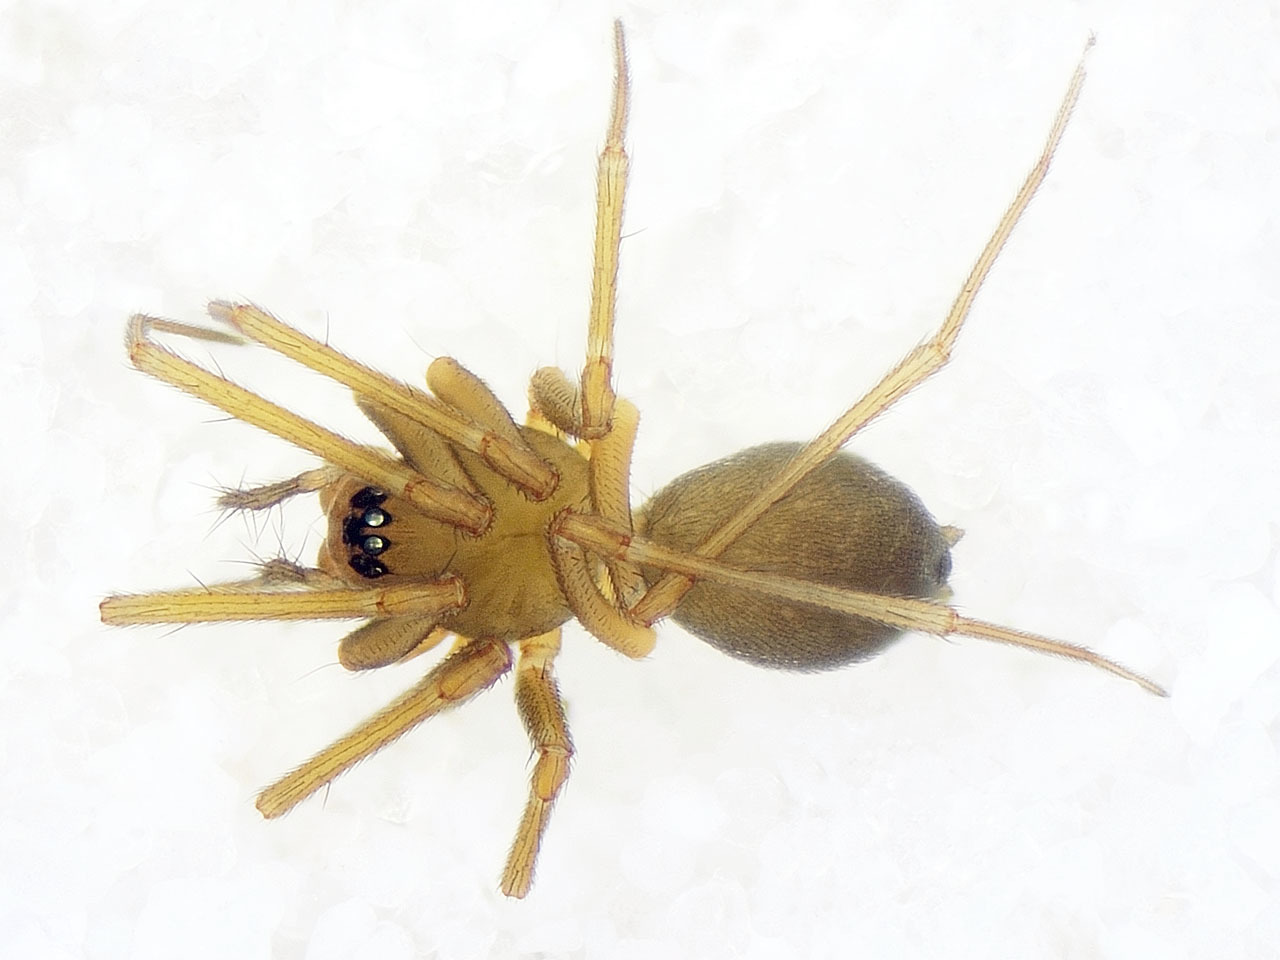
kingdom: Animalia
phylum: Arthropoda
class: Arachnida
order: Araneae
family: Linyphiidae
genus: Diplostyla
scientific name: Diplostyla concolor
